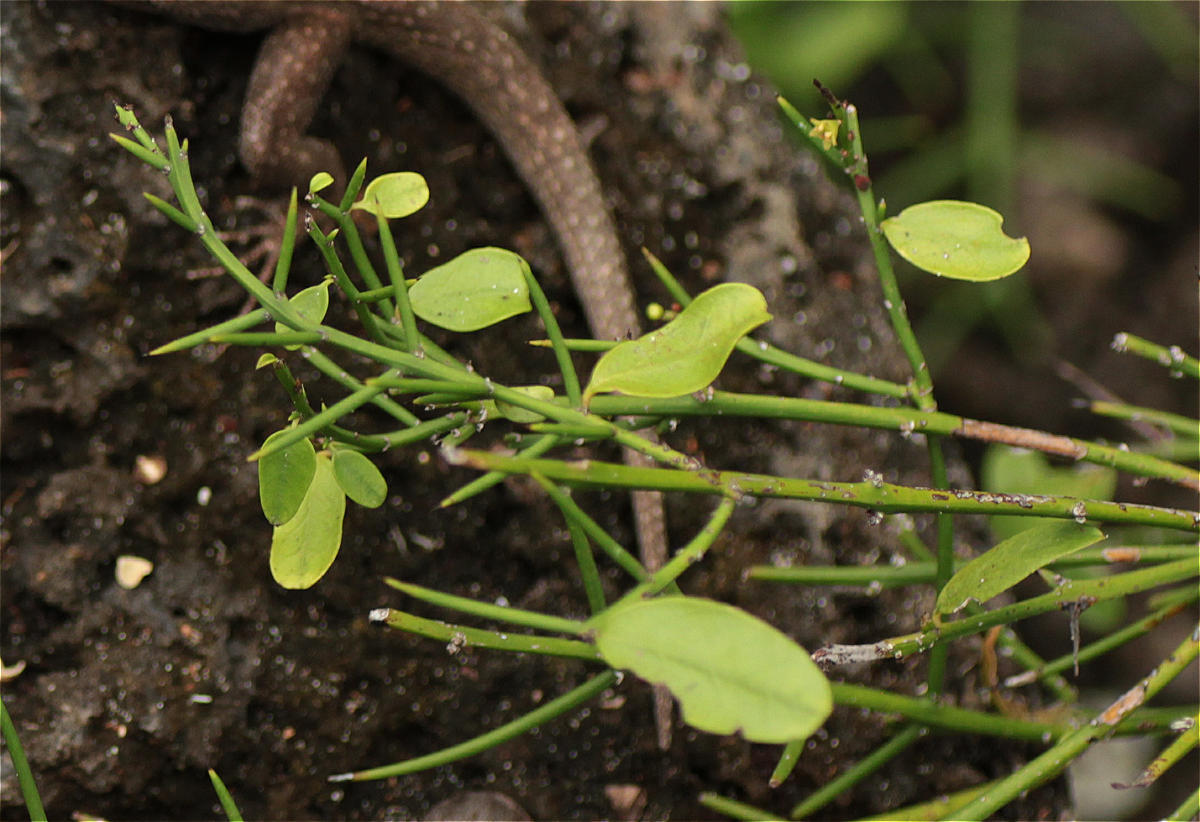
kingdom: Plantae
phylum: Tracheophyta
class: Magnoliopsida
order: Rosales
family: Rhamnaceae
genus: Scutia
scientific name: Scutia spicata
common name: Spiny bush
